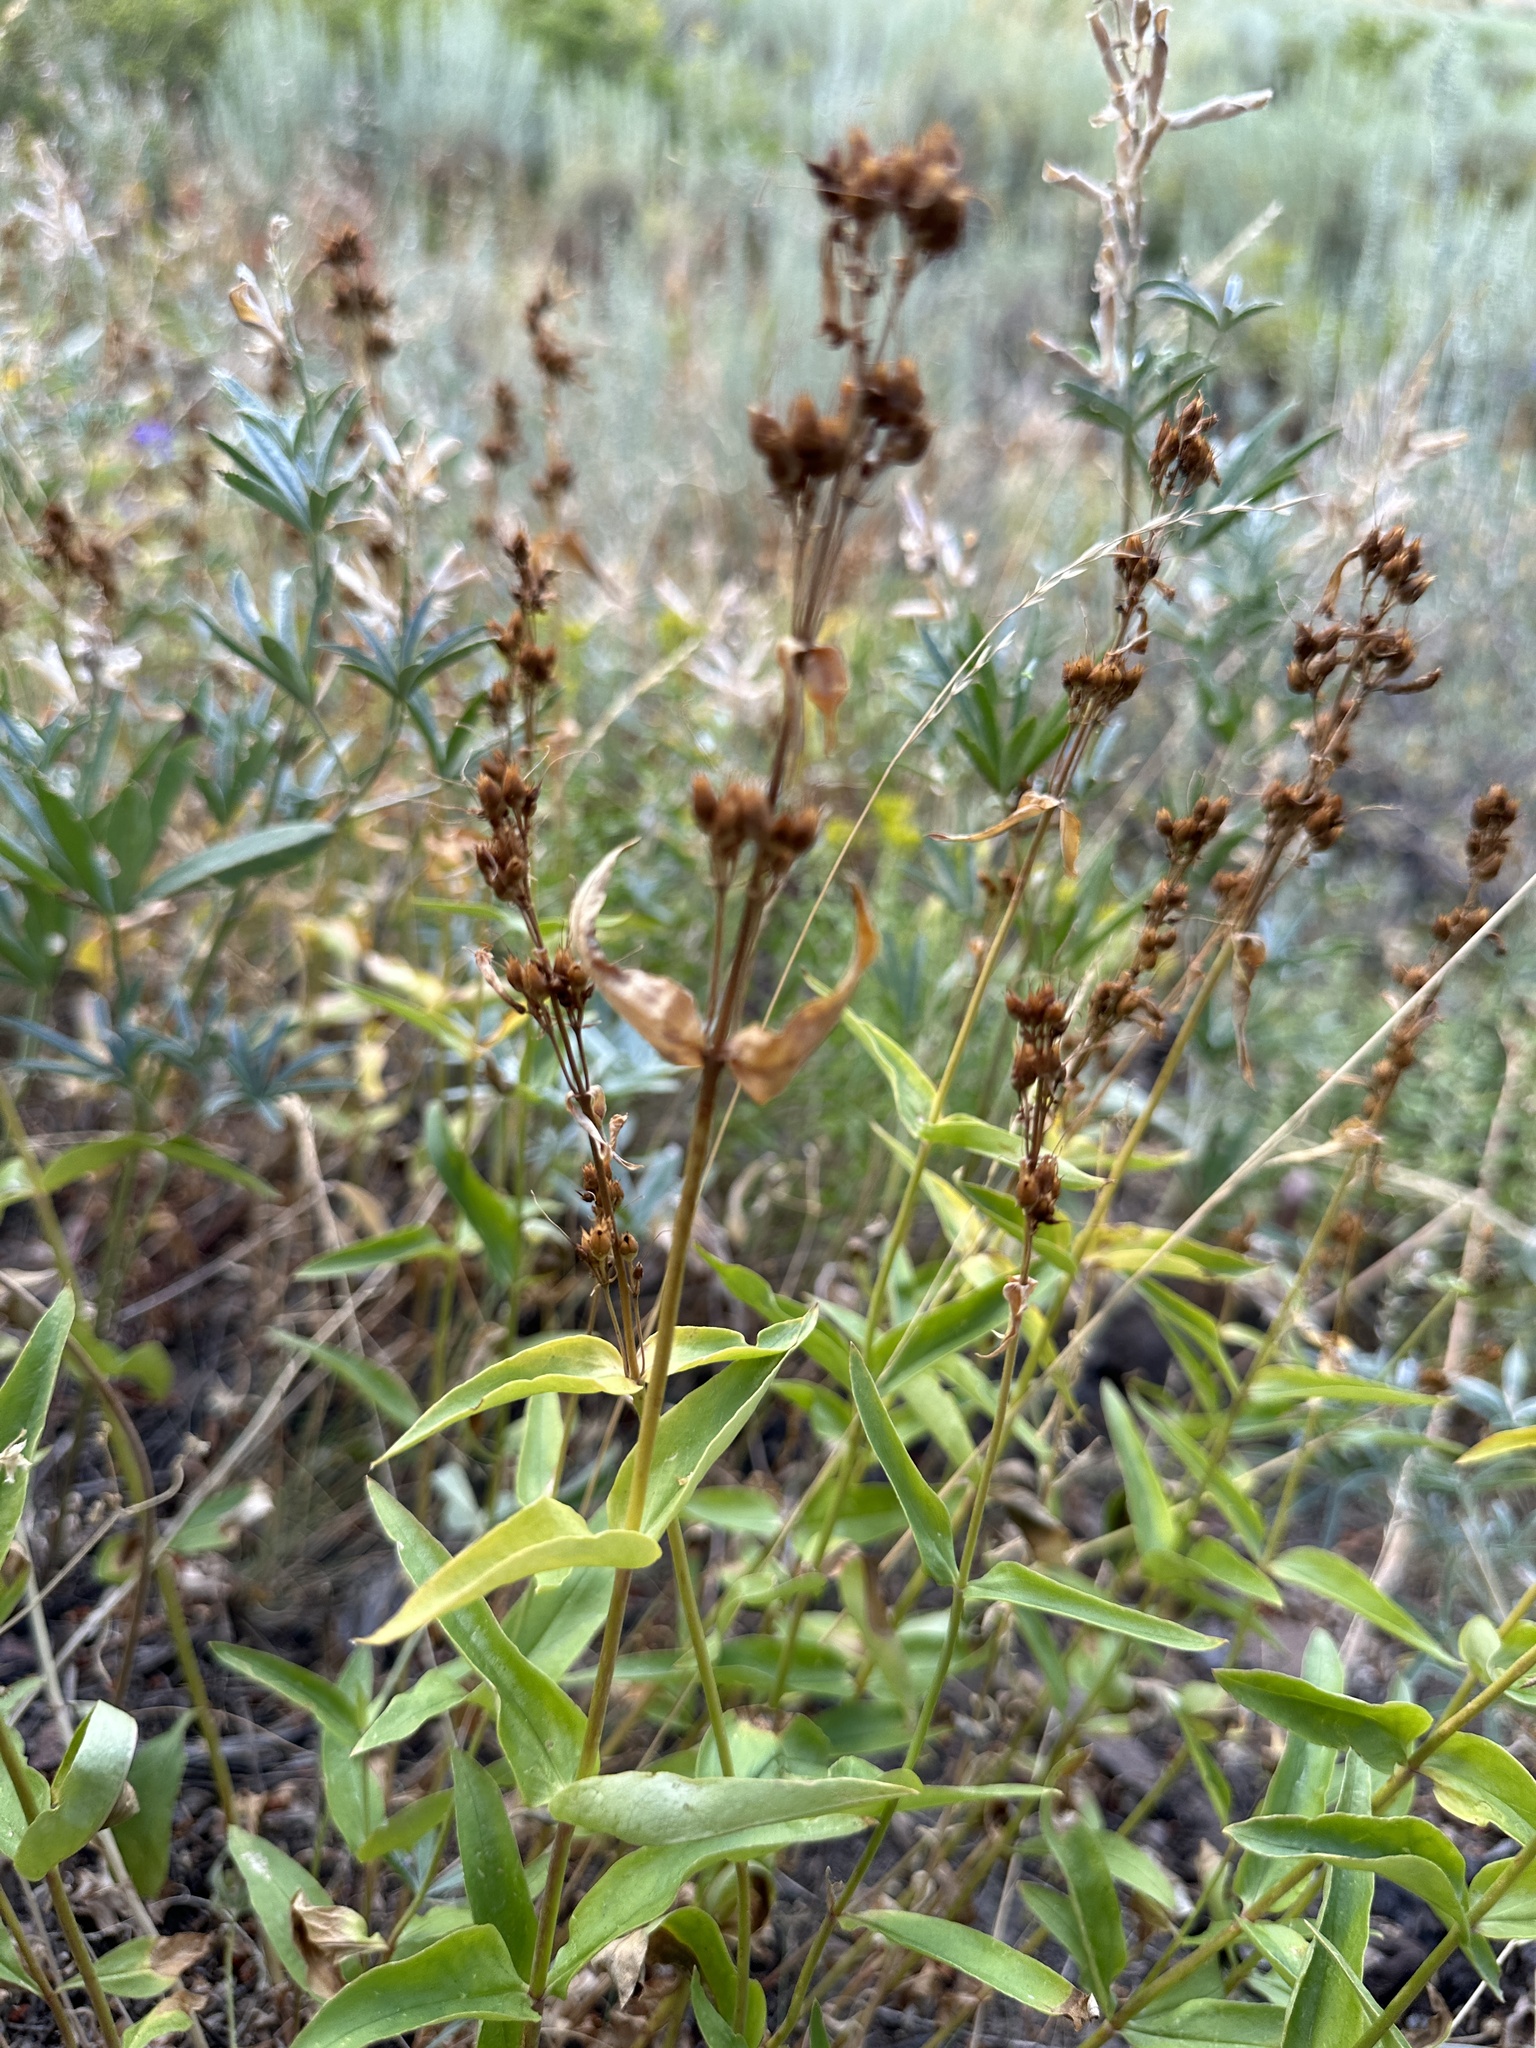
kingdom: Plantae
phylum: Tracheophyta
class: Magnoliopsida
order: Lamiales
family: Plantaginaceae
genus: Penstemon
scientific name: Penstemon watsonii
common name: Watson's penstemon
